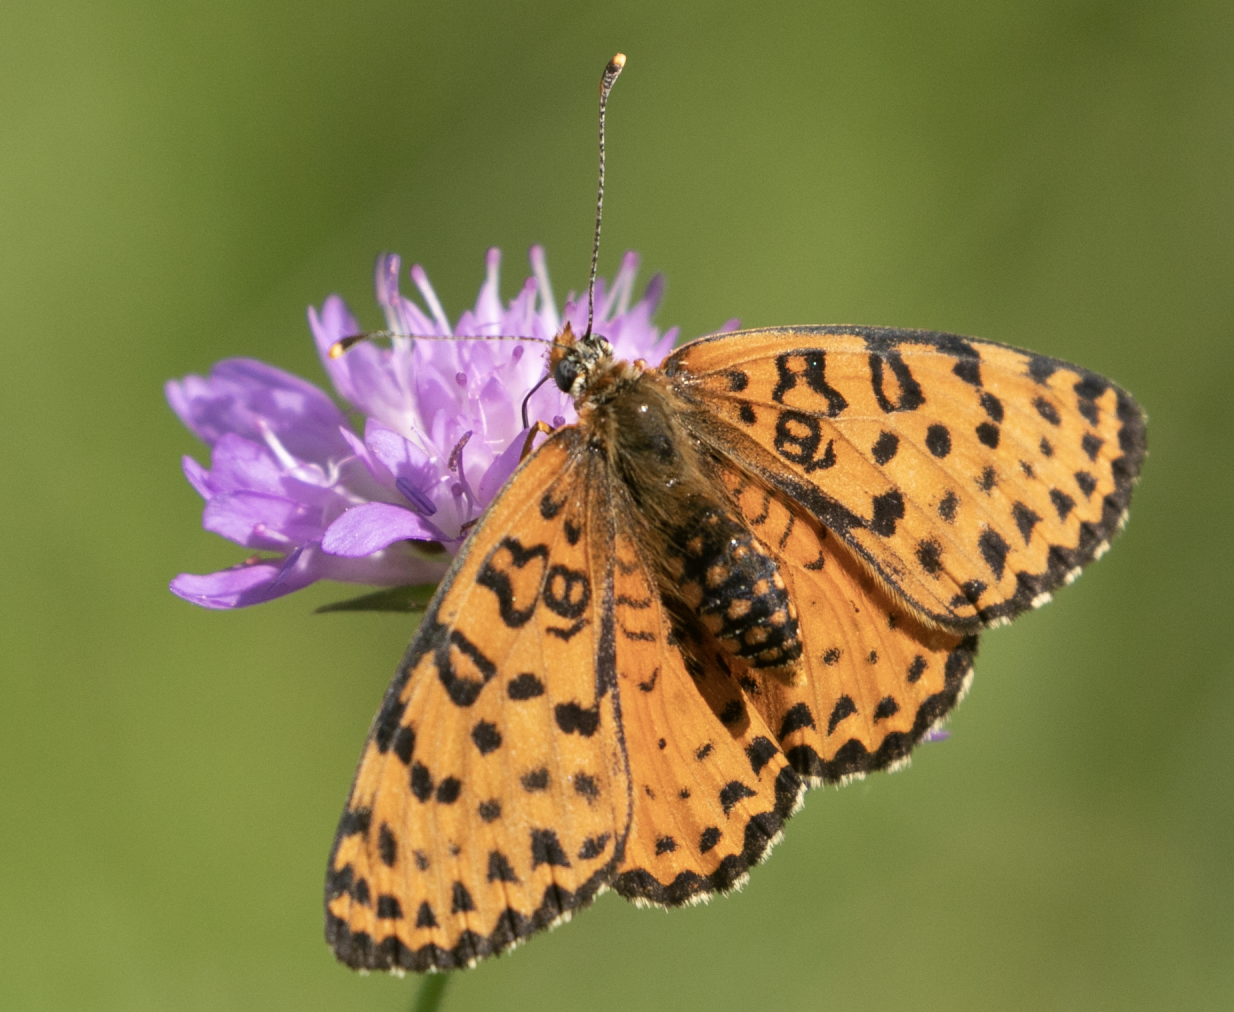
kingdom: Animalia
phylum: Arthropoda
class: Insecta
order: Lepidoptera
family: Nymphalidae
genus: Melitaea
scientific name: Melitaea didyma
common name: Spotted fritillary
